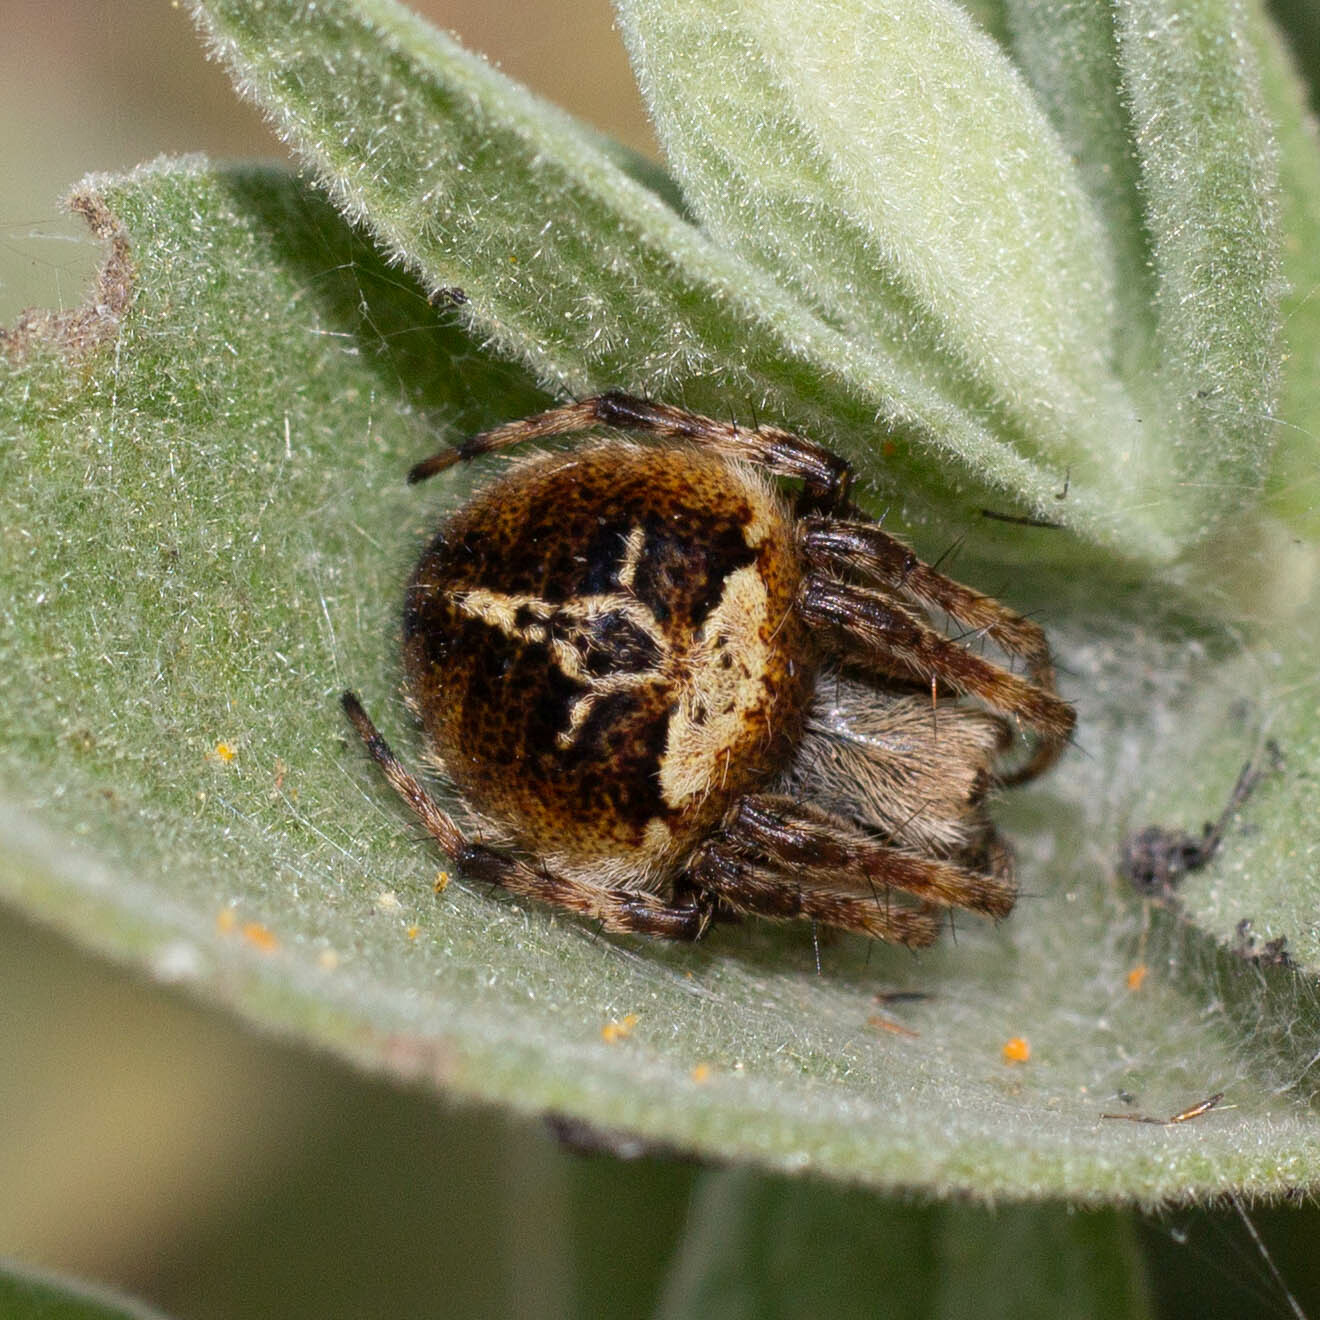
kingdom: Animalia
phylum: Arthropoda
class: Arachnida
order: Araneae
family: Araneidae
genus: Agalenatea
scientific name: Agalenatea redii
